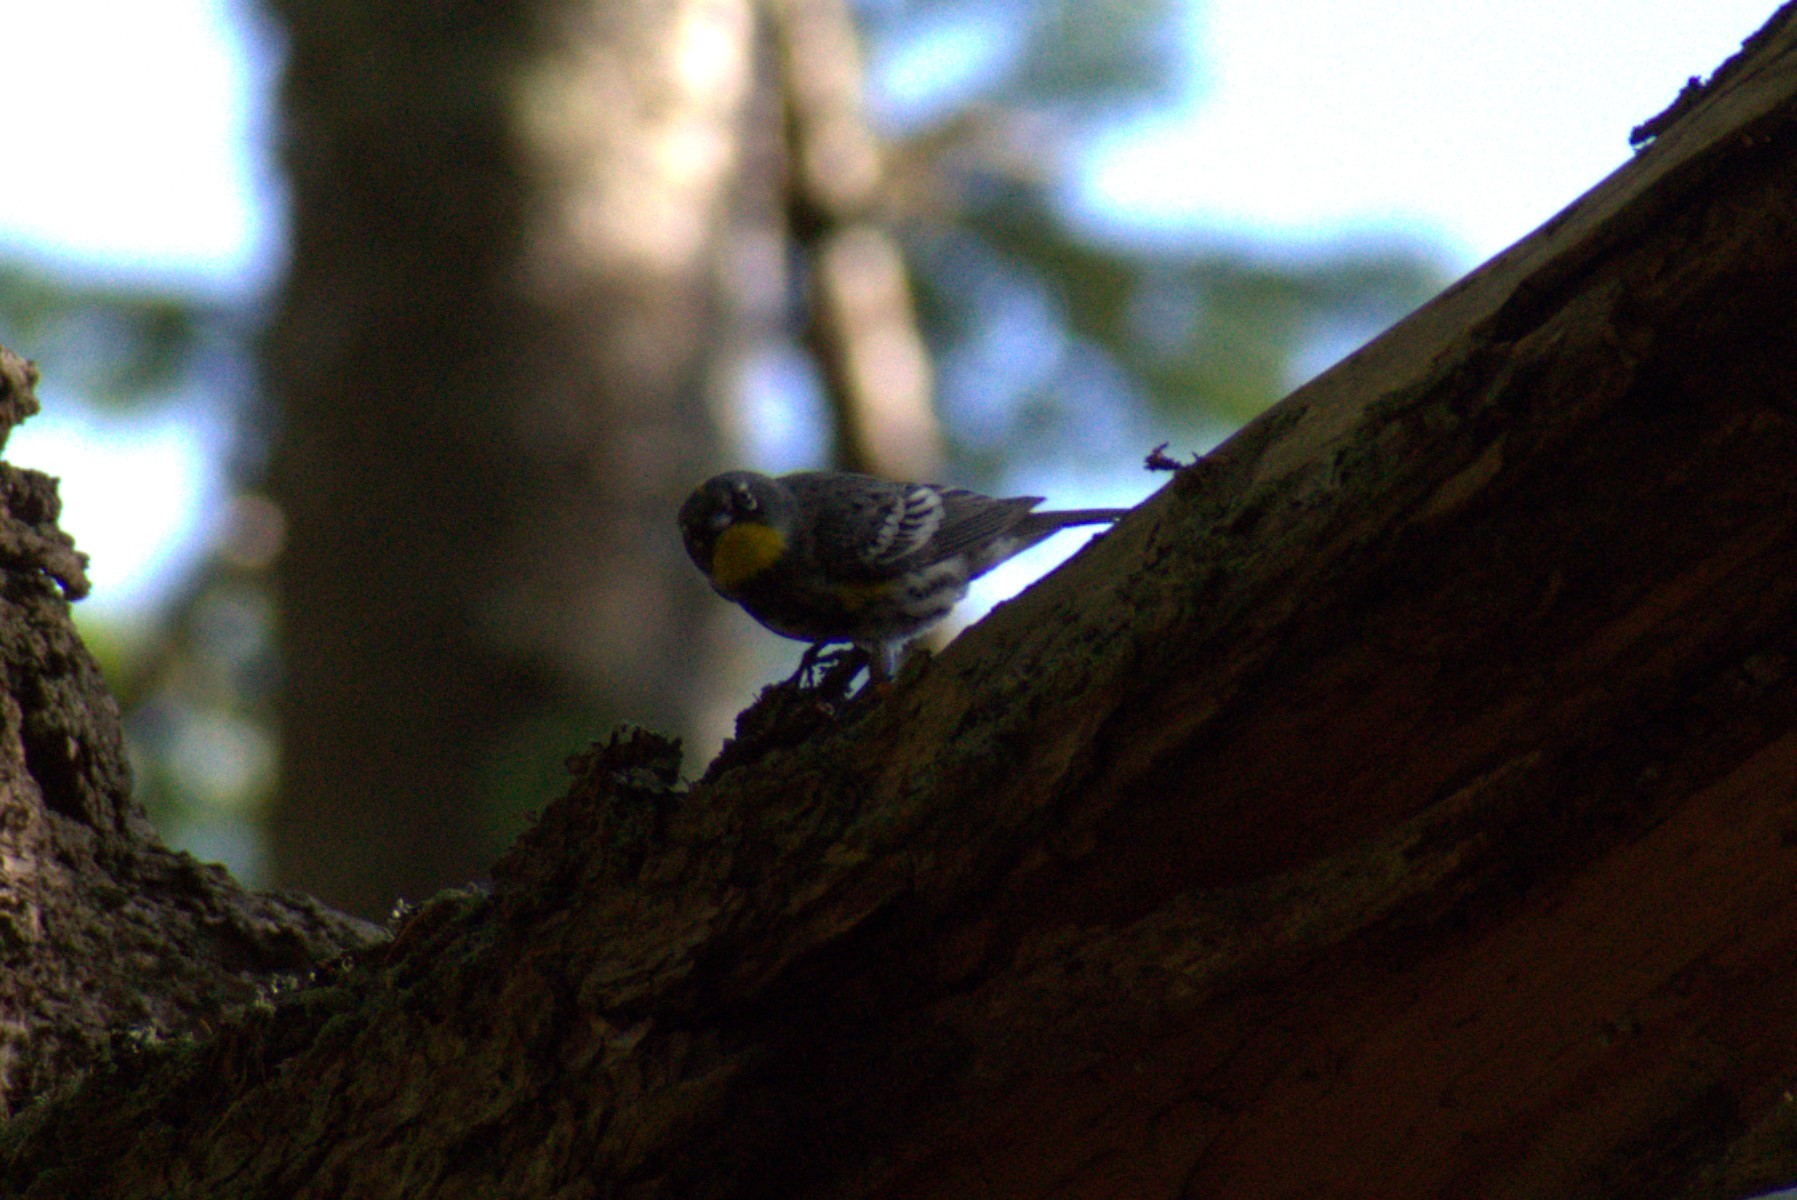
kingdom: Animalia
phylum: Chordata
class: Aves
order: Passeriformes
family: Parulidae
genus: Setophaga
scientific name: Setophaga coronata
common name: Myrtle warbler
